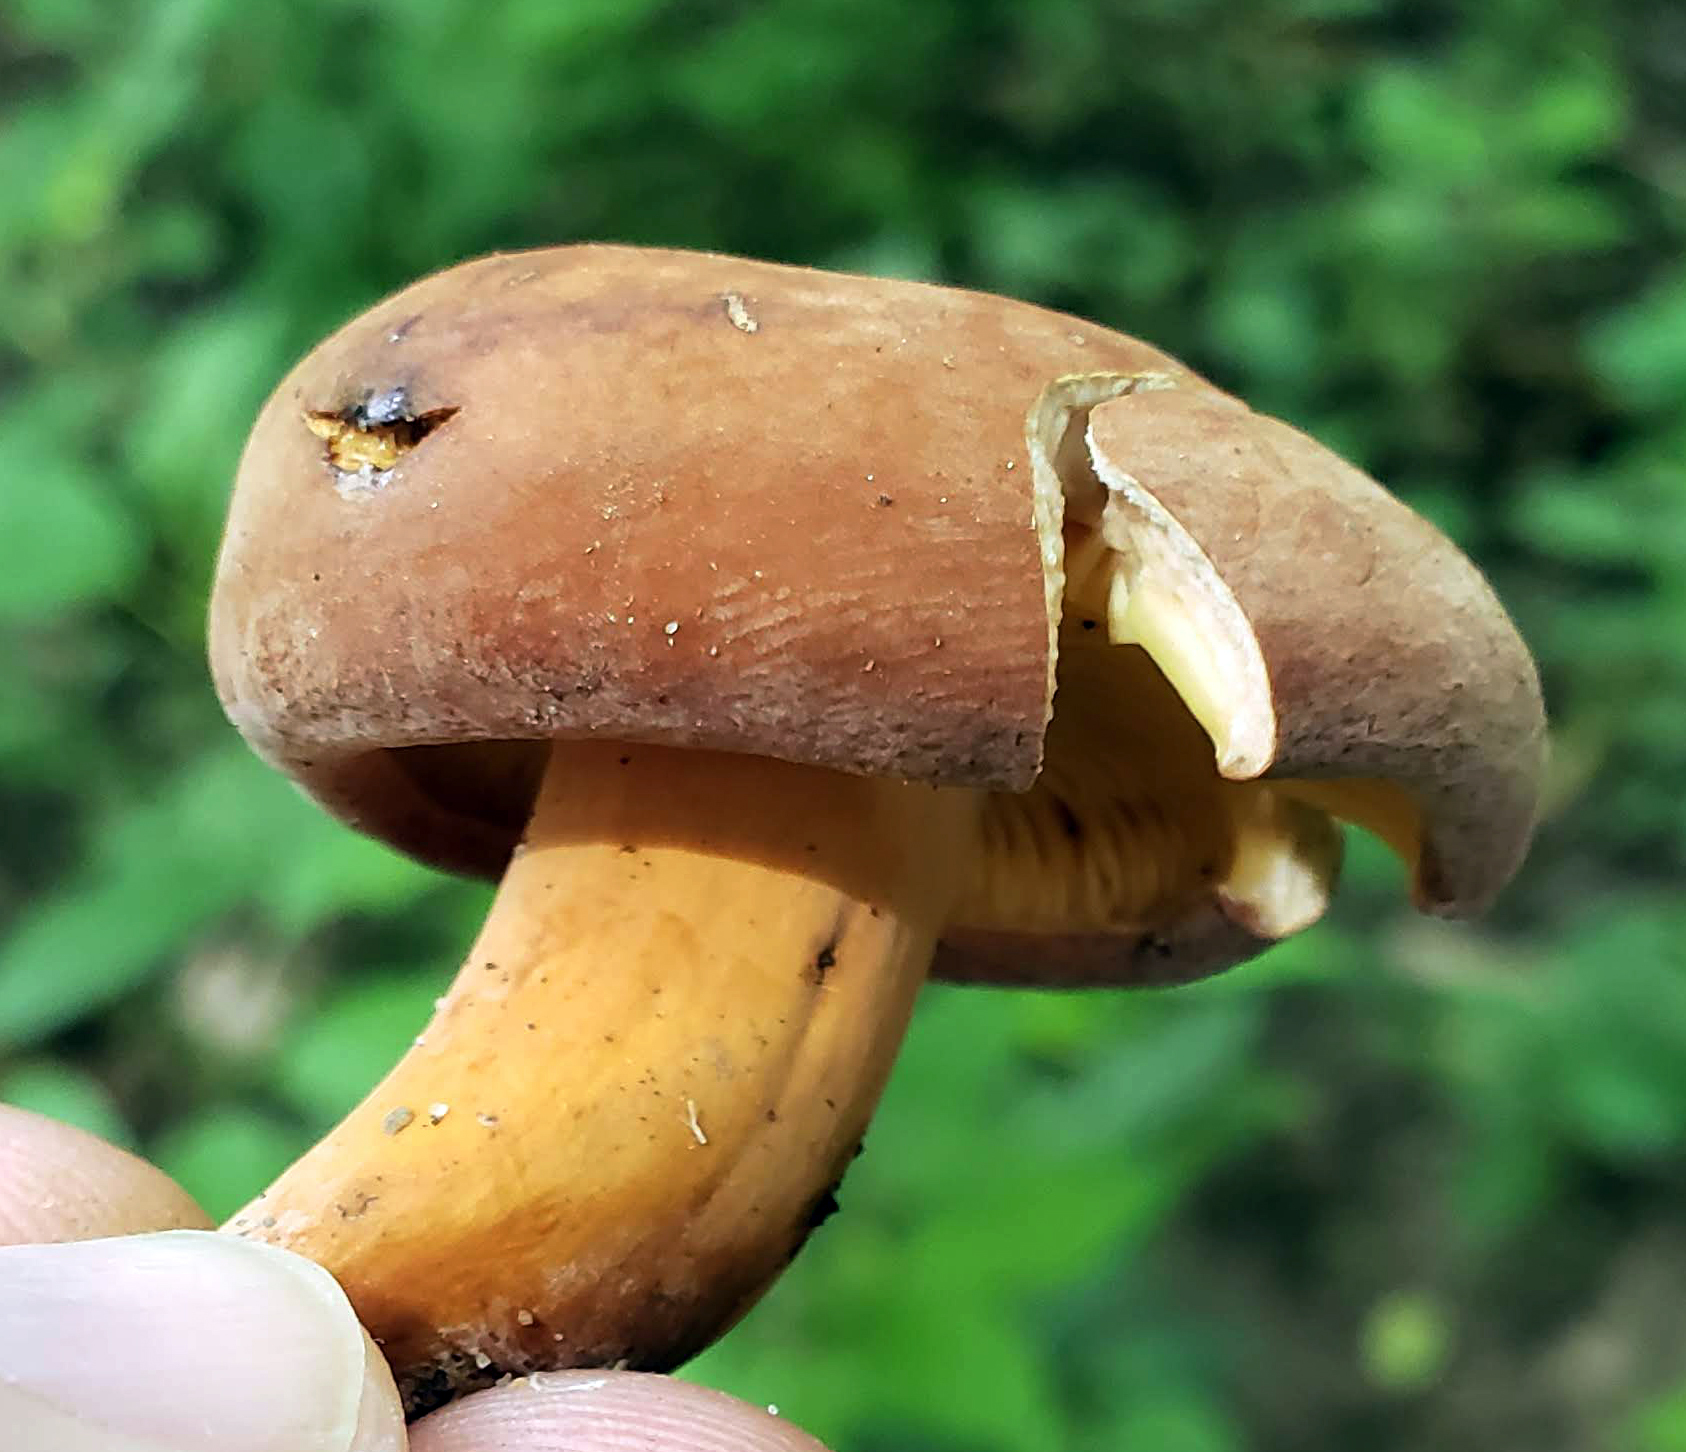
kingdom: Fungi
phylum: Basidiomycota
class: Agaricomycetes
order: Russulales
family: Russulaceae
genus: Lactarius
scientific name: Lactarius corrugis
